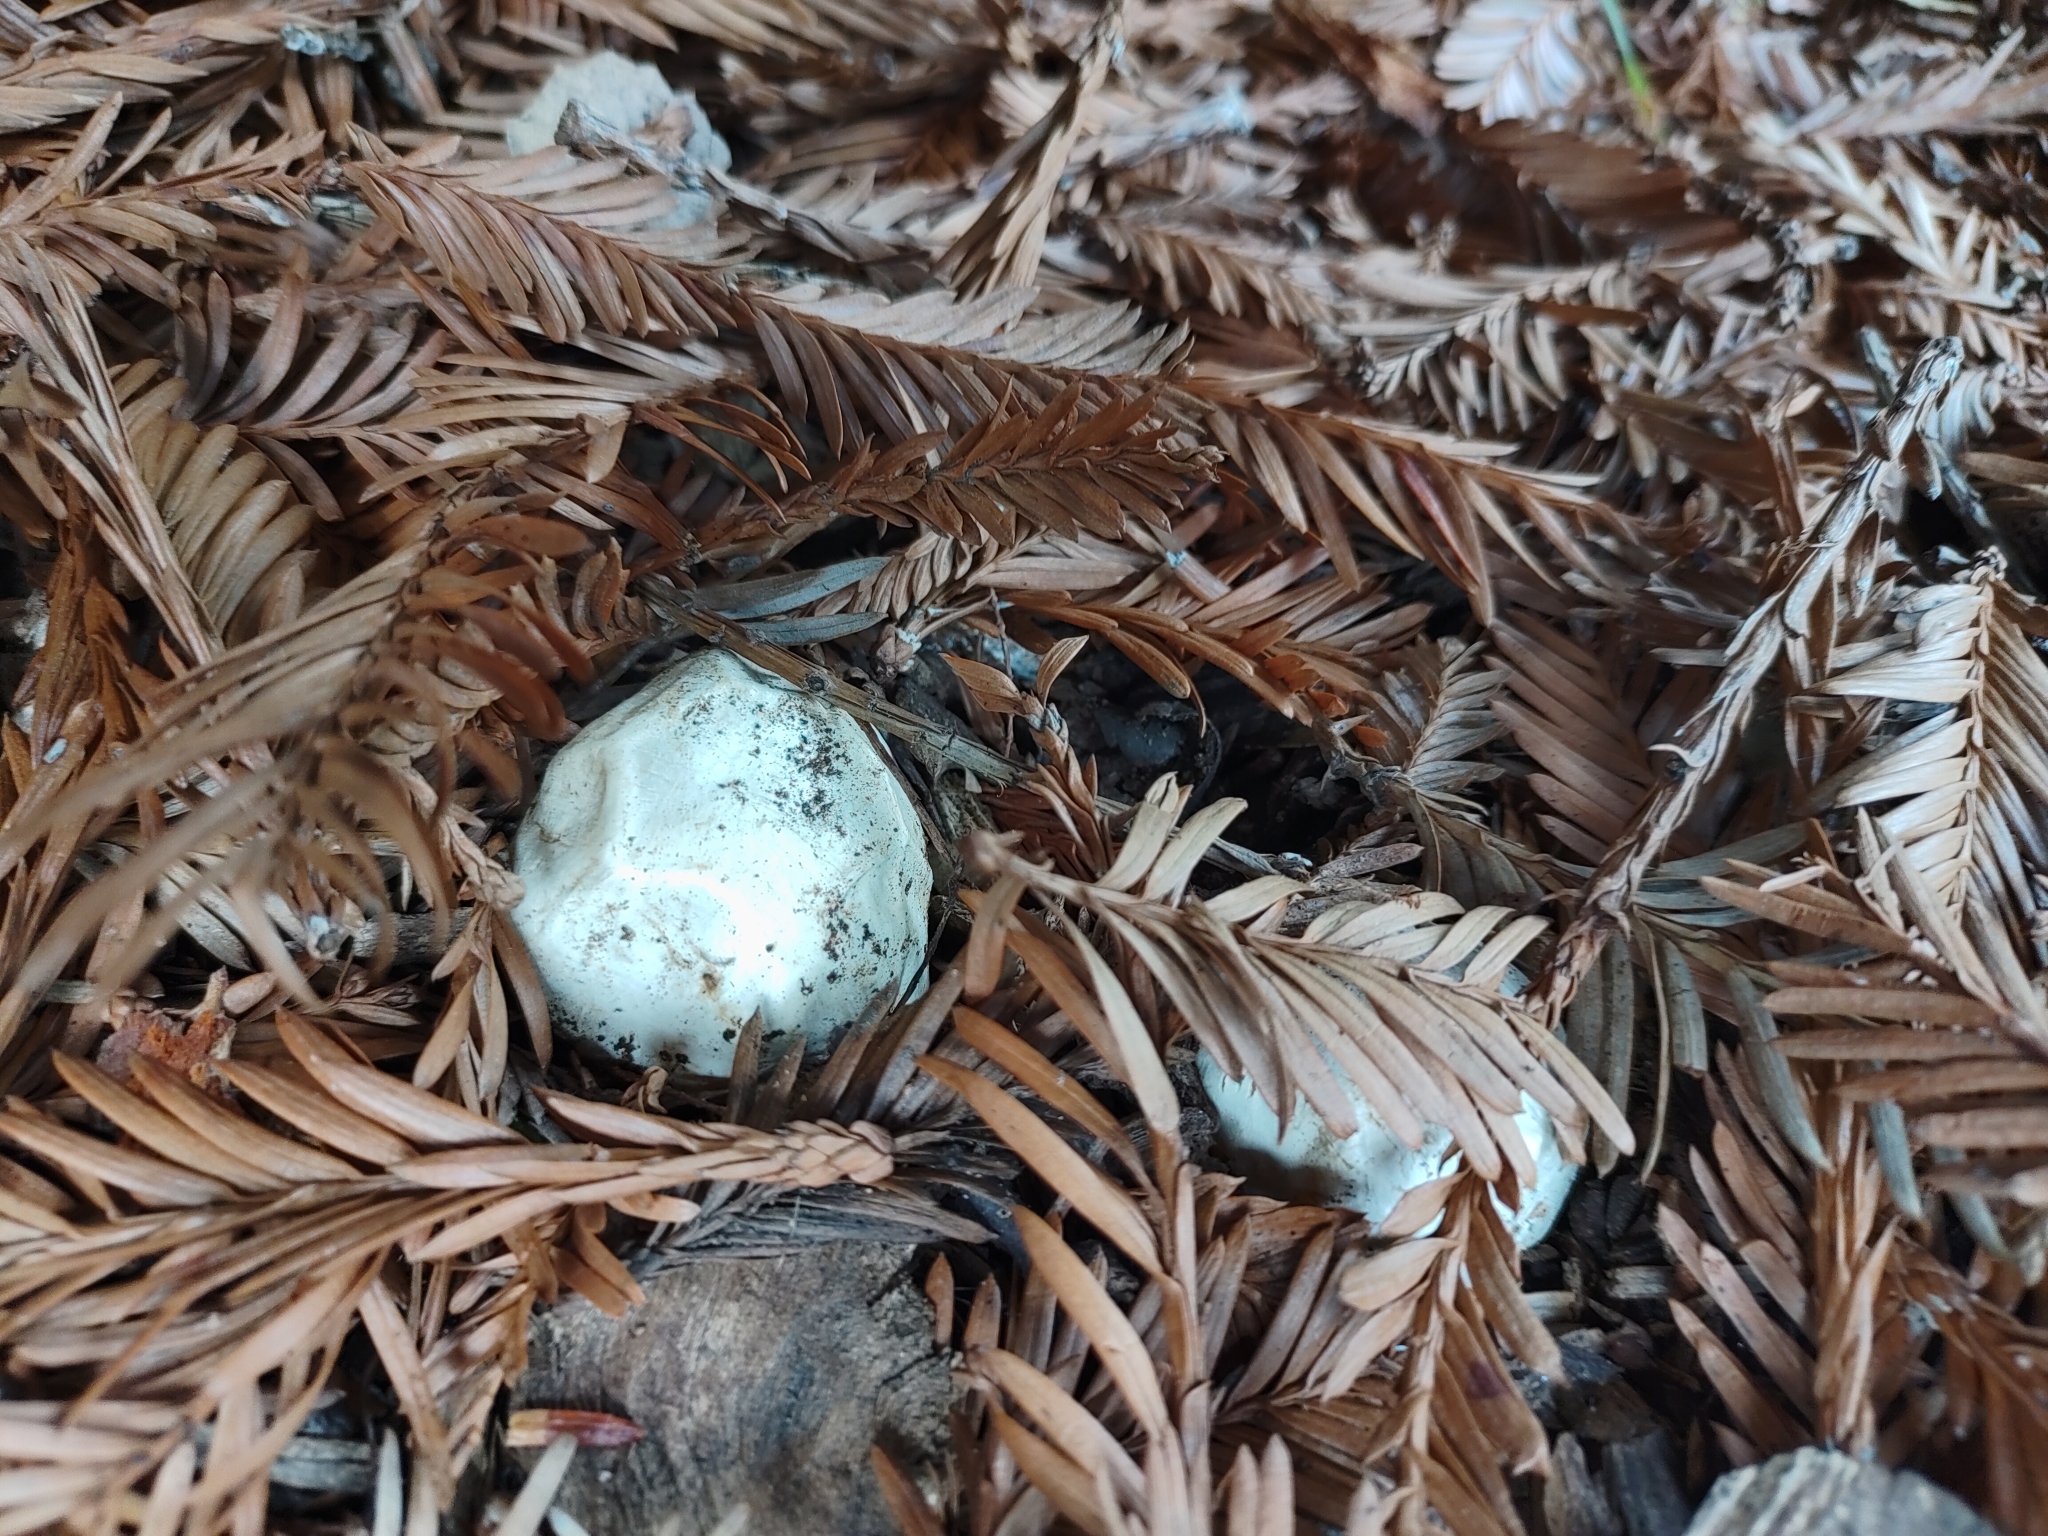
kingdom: Fungi
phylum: Basidiomycota
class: Agaricomycetes
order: Phallales
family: Phallaceae
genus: Clathrus
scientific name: Clathrus ruber
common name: Red cage
